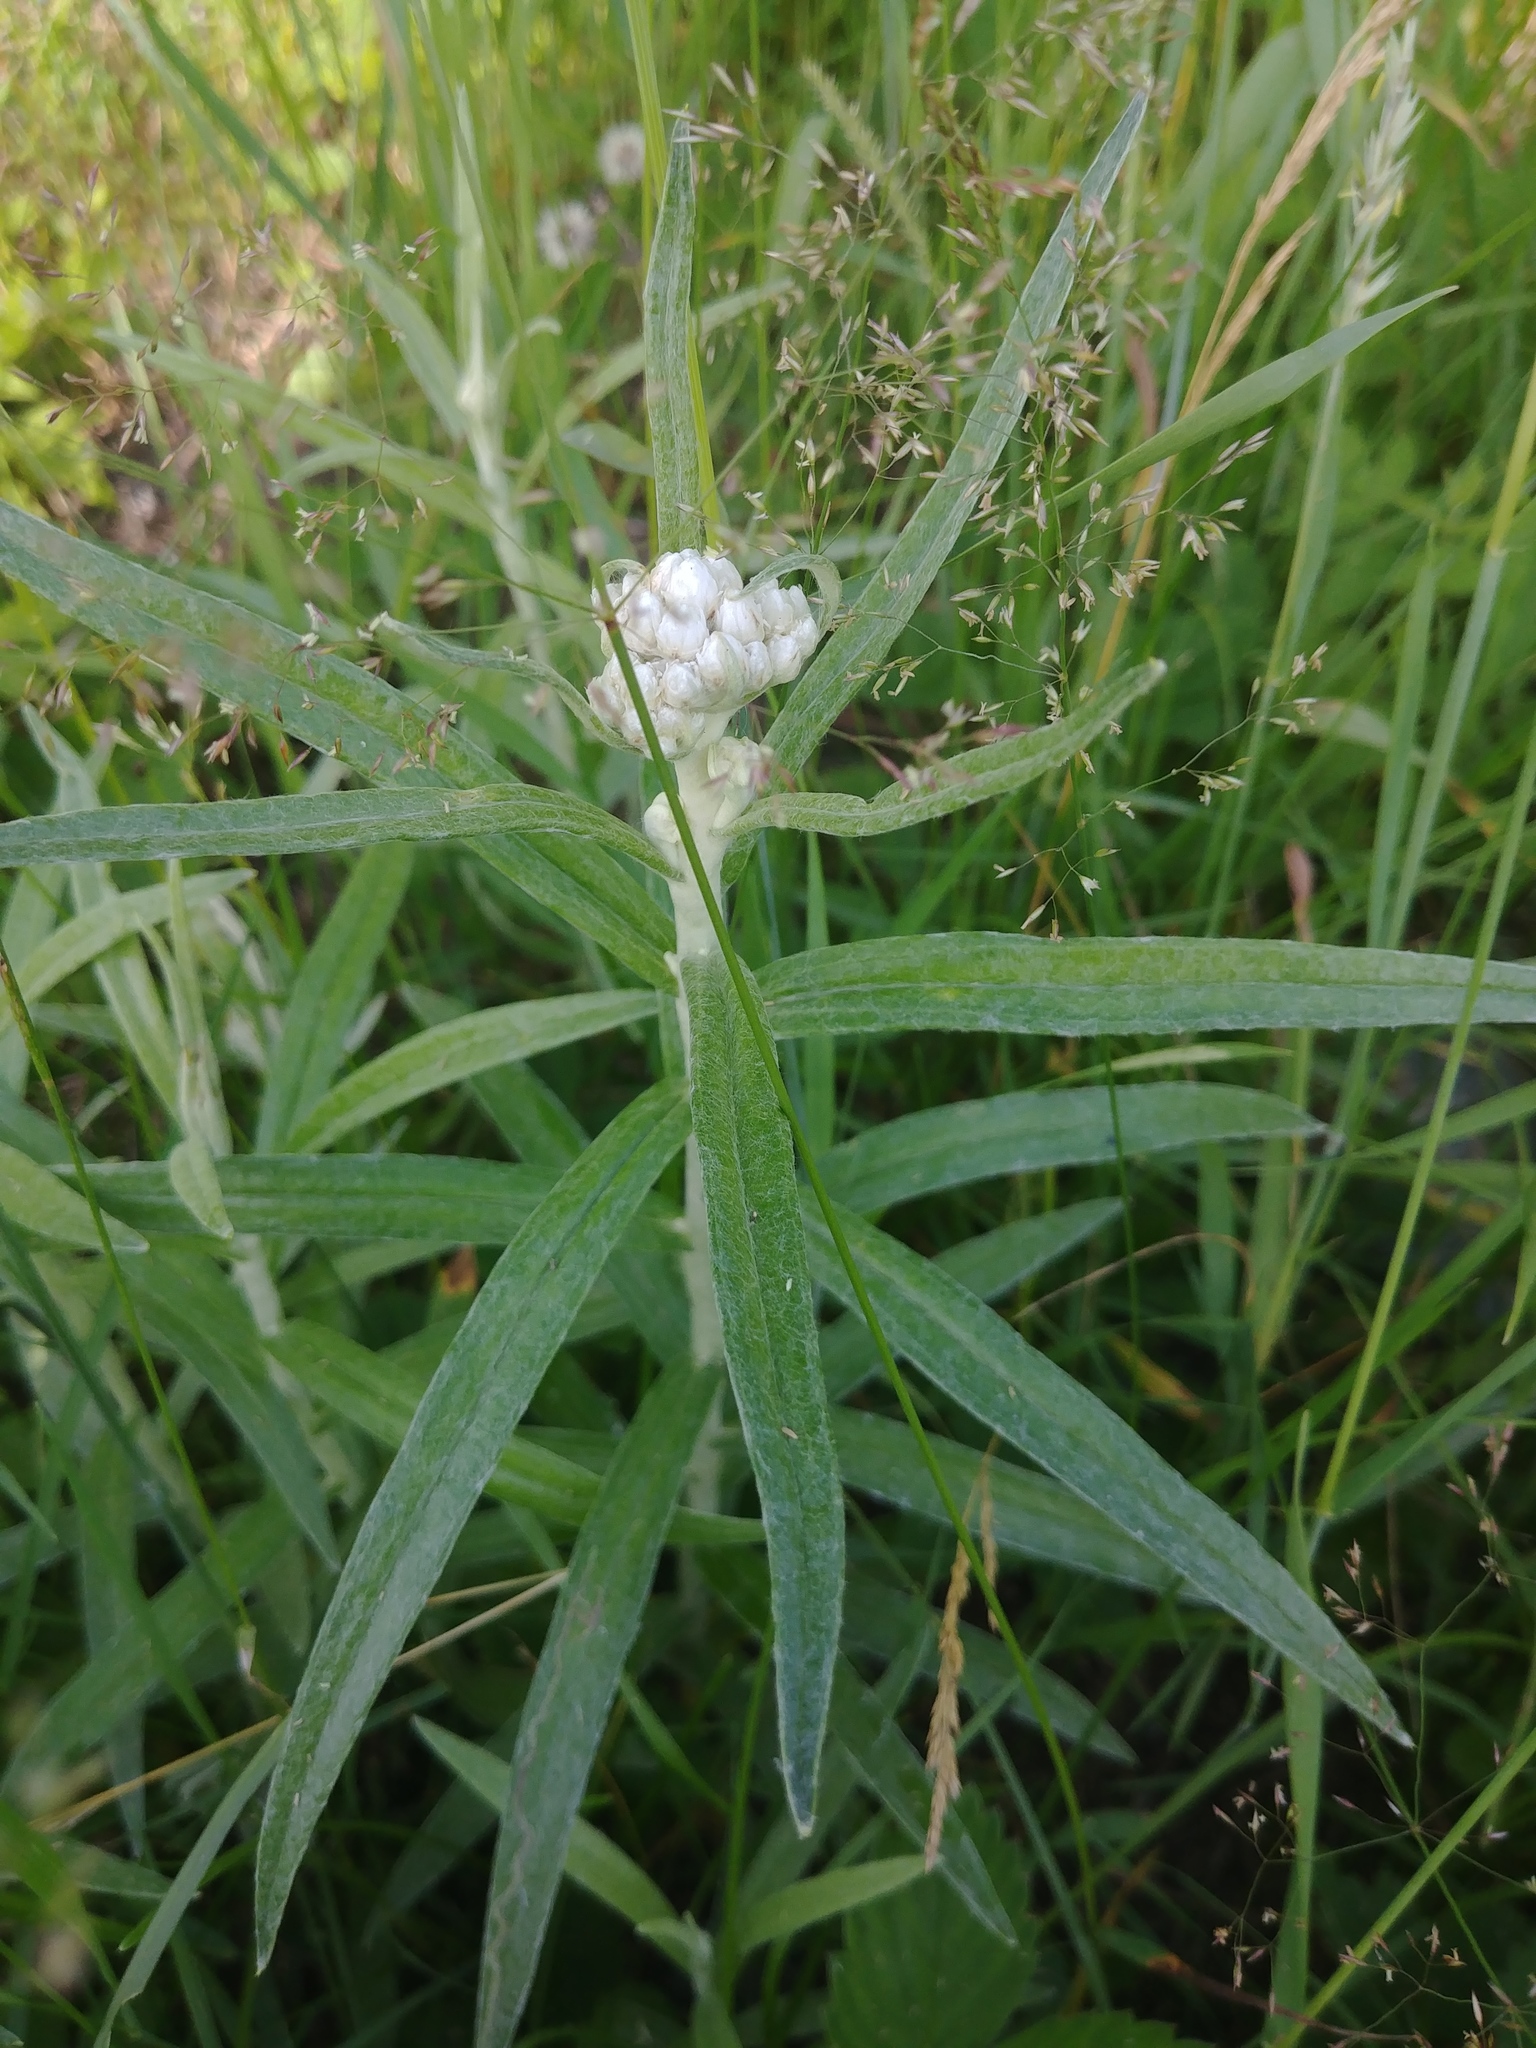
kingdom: Plantae
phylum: Tracheophyta
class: Magnoliopsida
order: Asterales
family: Asteraceae
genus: Anaphalis
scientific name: Anaphalis margaritacea
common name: Pearly everlasting
